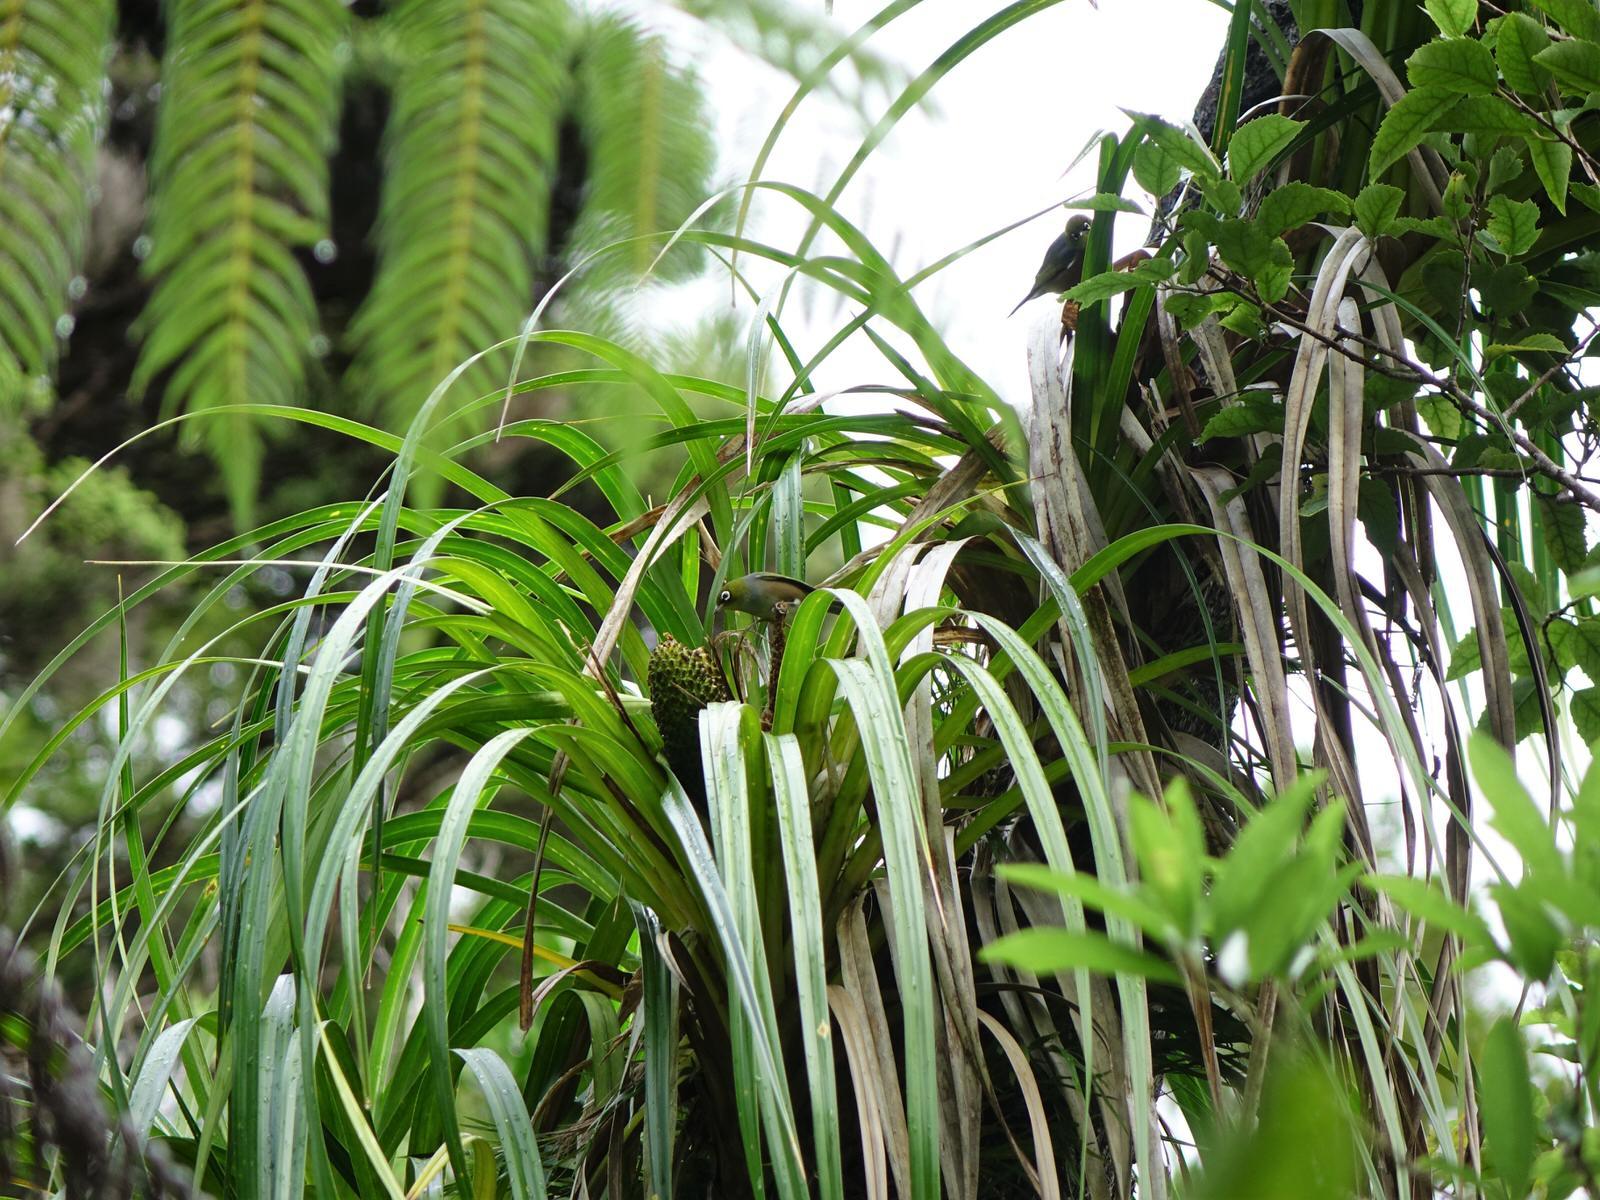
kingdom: Animalia
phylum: Chordata
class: Aves
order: Passeriformes
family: Zosteropidae
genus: Zosterops
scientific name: Zosterops lateralis
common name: Silvereye
